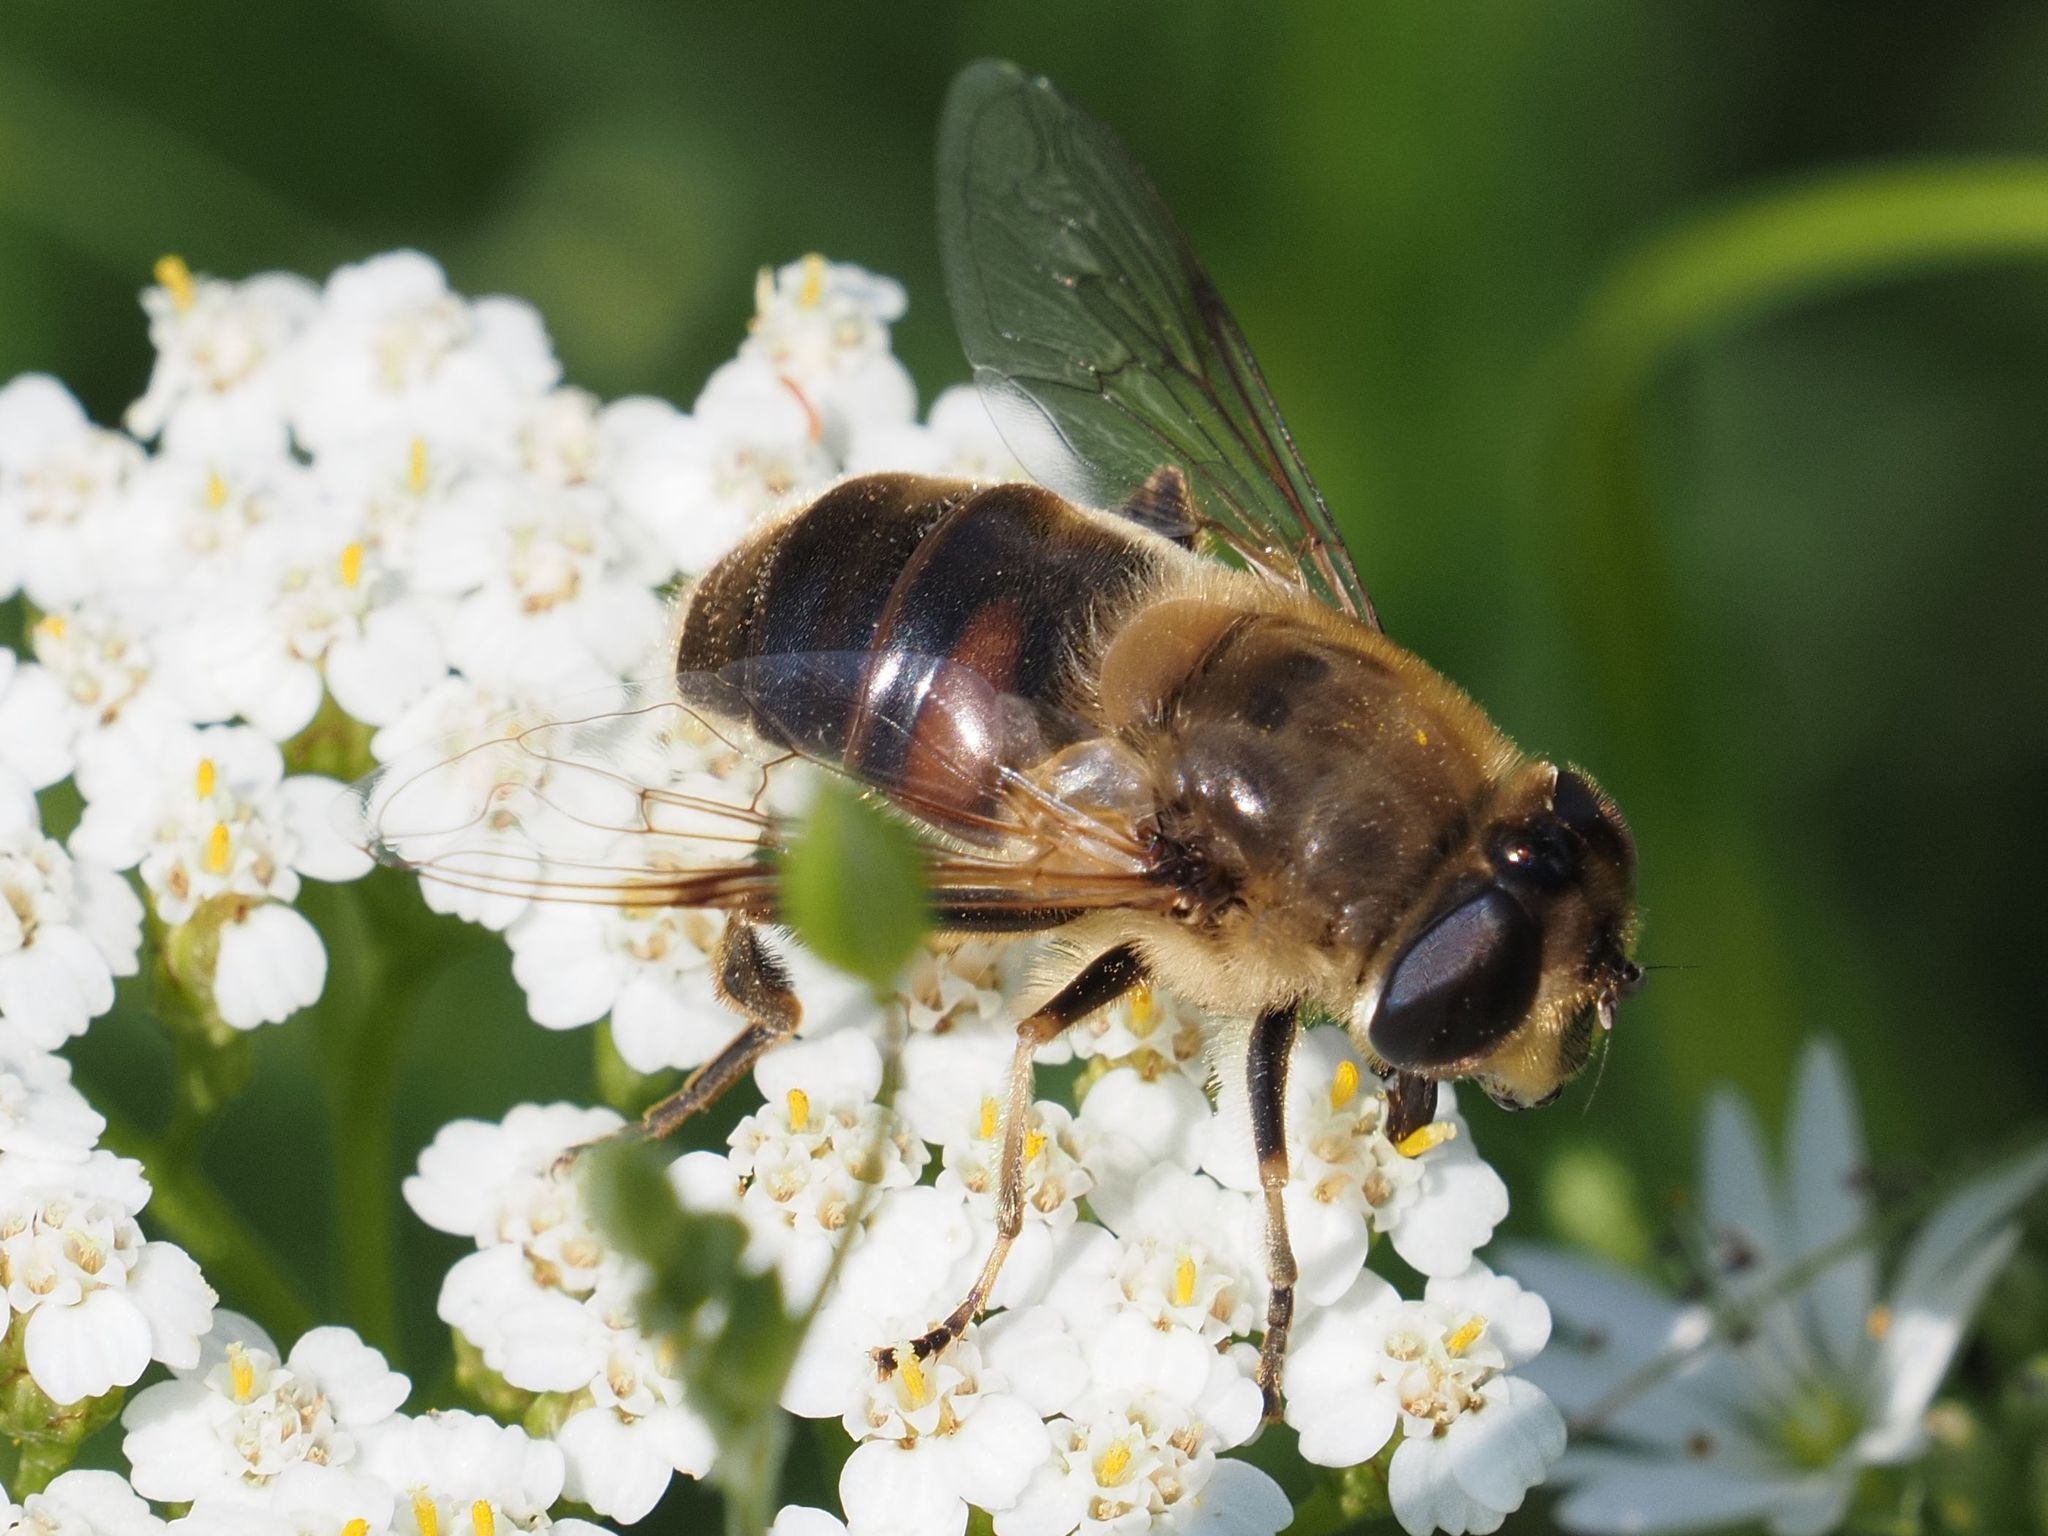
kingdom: Animalia
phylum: Arthropoda
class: Insecta
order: Diptera
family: Syrphidae
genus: Eristalis
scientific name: Eristalis tenax
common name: Drone fly
